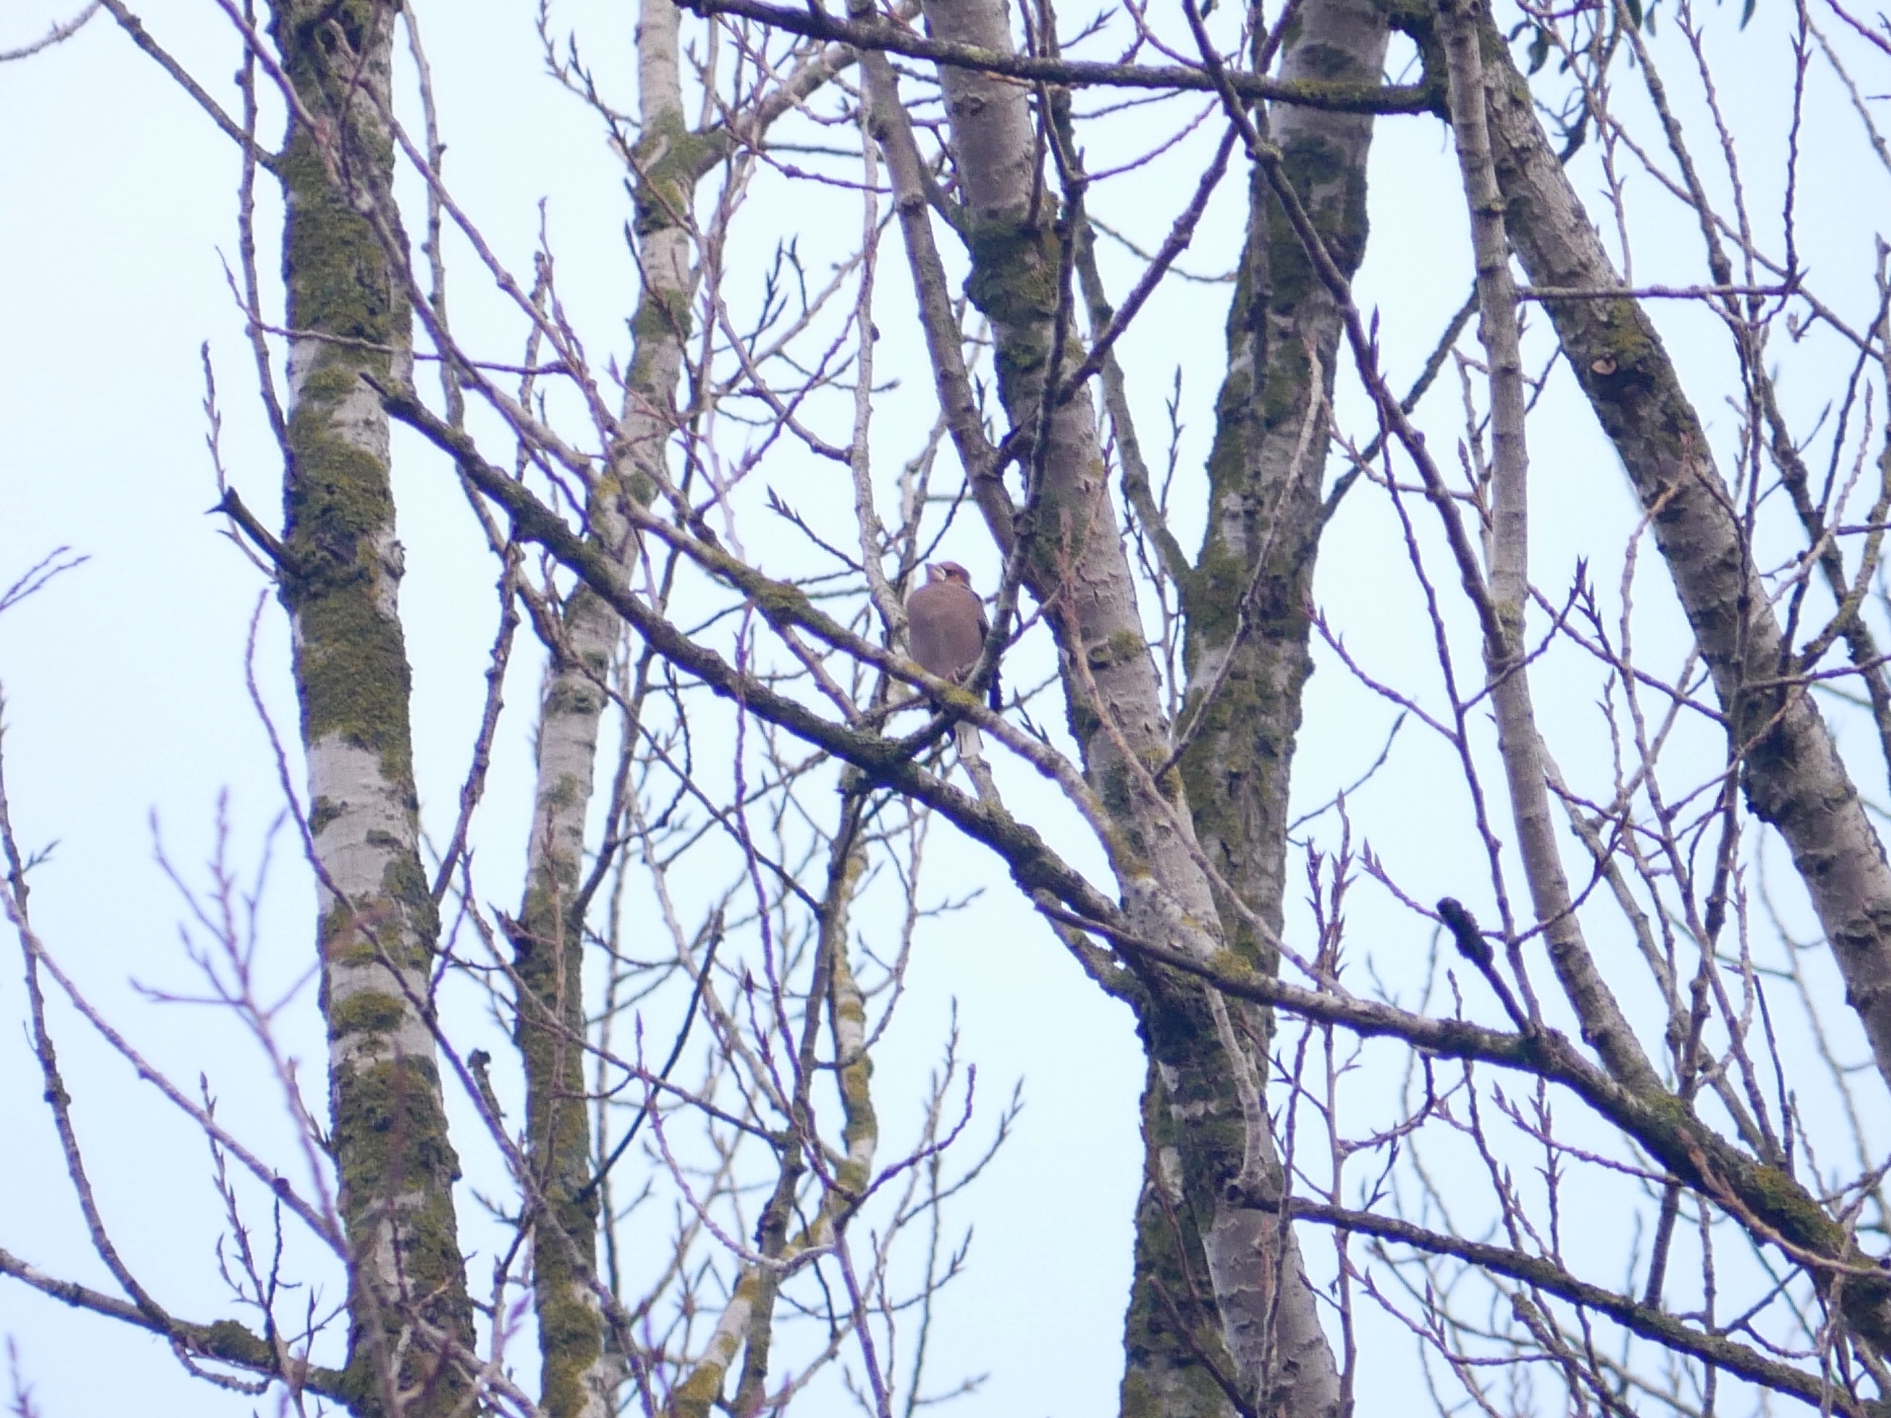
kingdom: Animalia
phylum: Chordata
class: Aves
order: Passeriformes
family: Fringillidae
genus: Coccothraustes
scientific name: Coccothraustes coccothraustes
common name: Hawfinch
